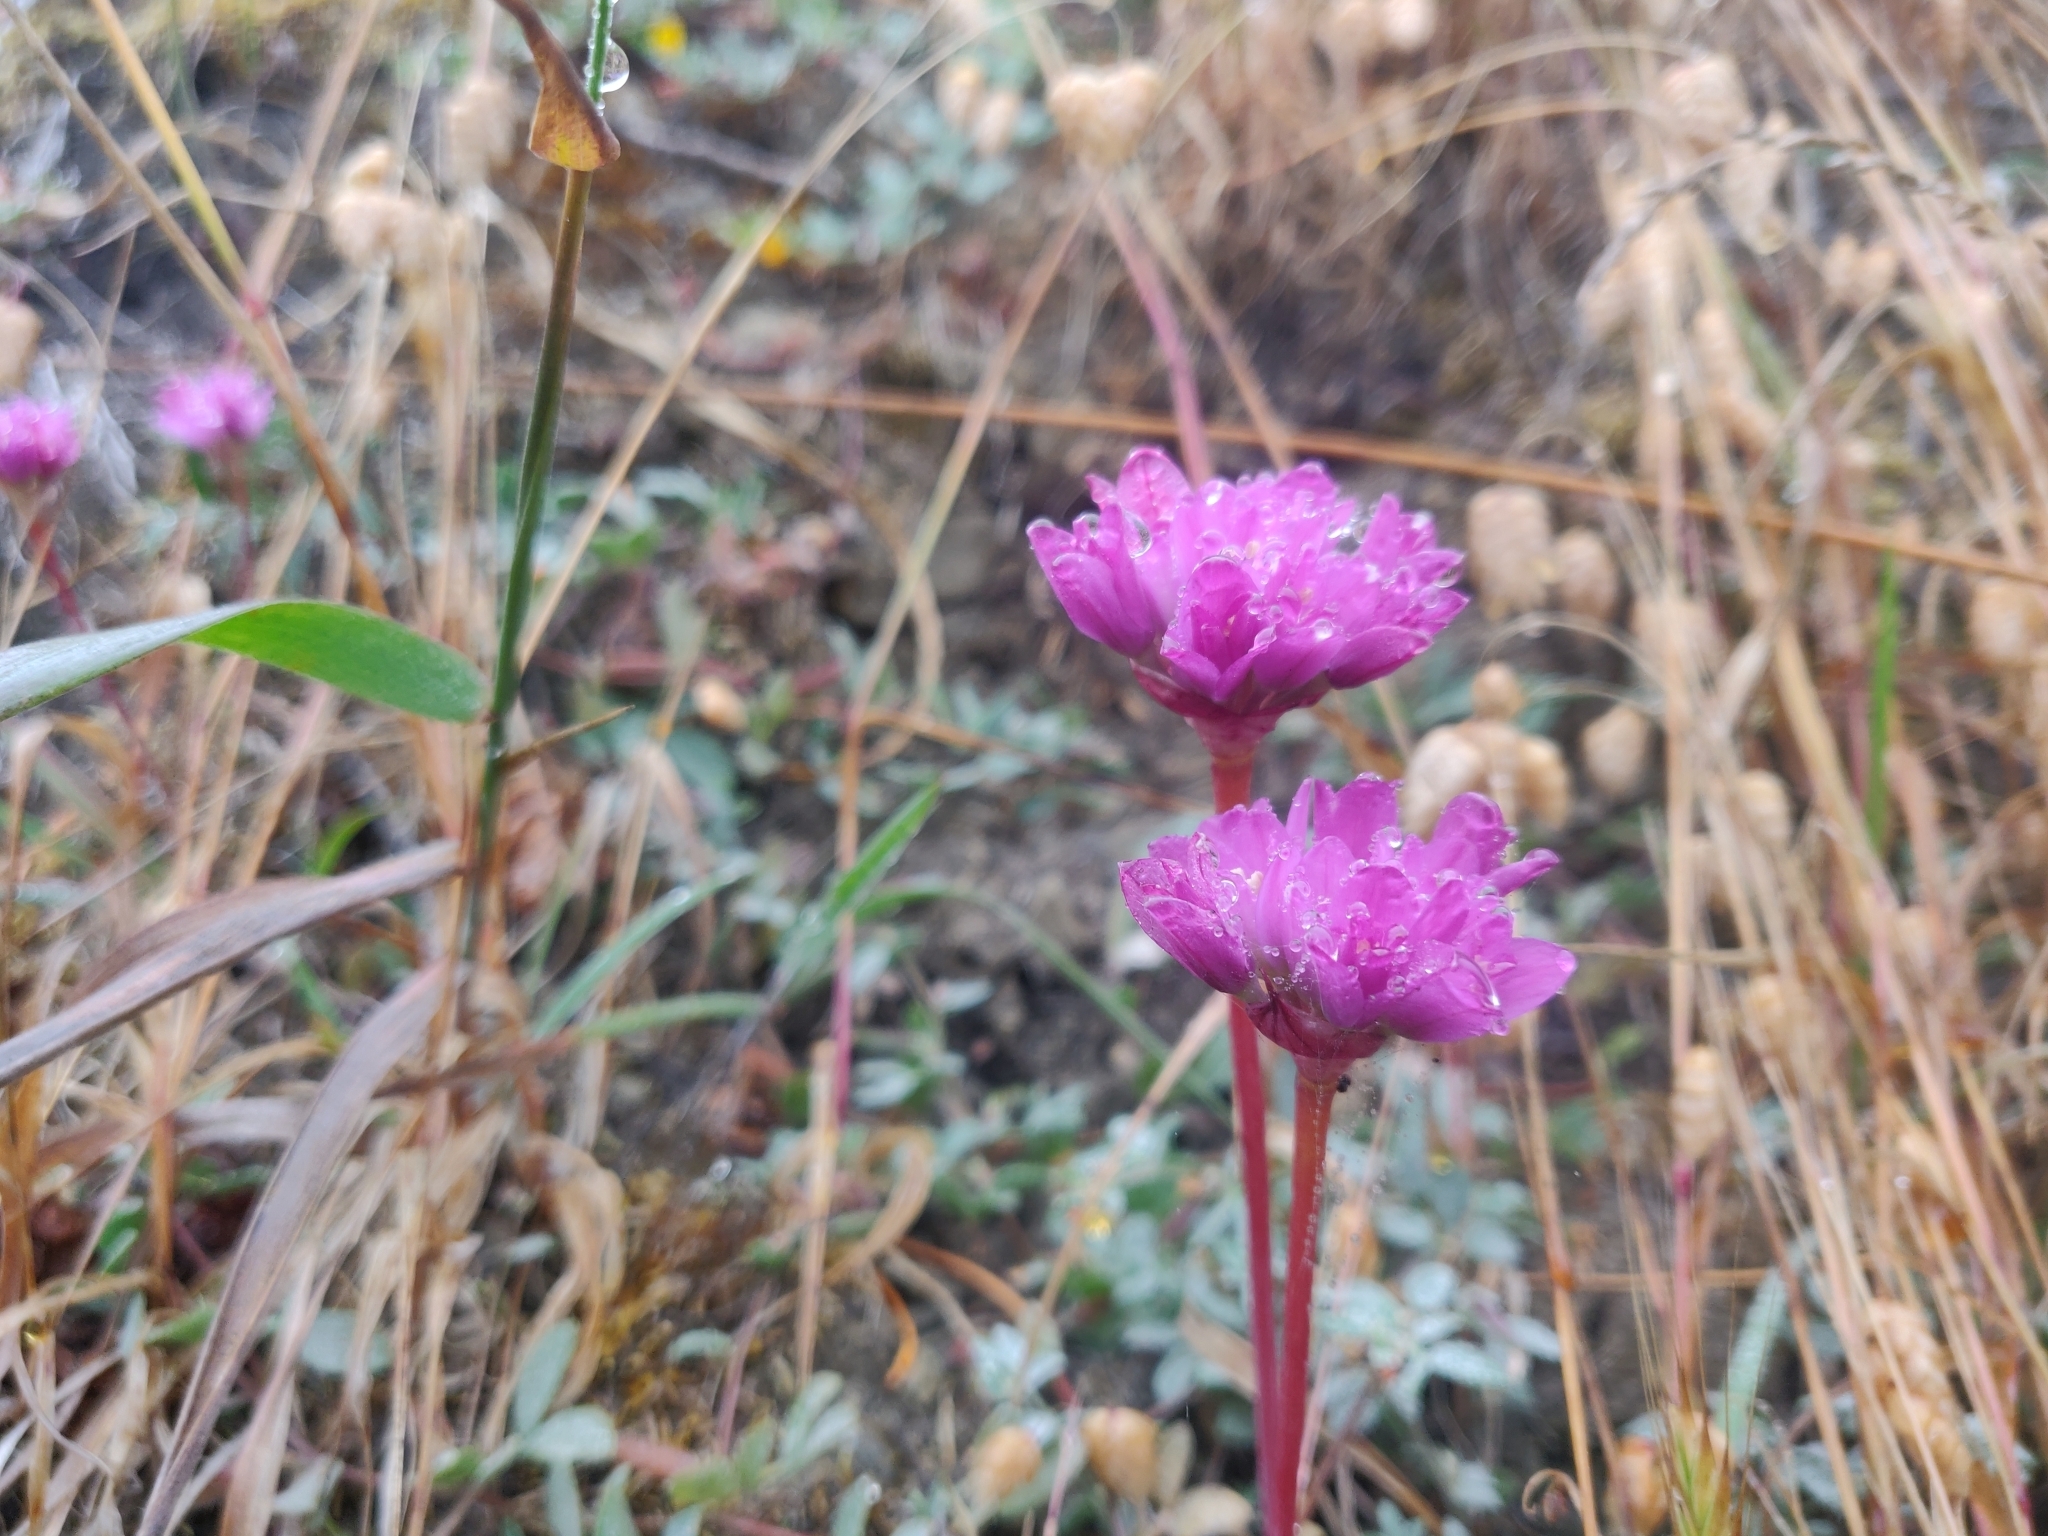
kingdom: Plantae
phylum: Tracheophyta
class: Liliopsida
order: Asparagales
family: Amaryllidaceae
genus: Allium
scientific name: Allium dichlamydeum
